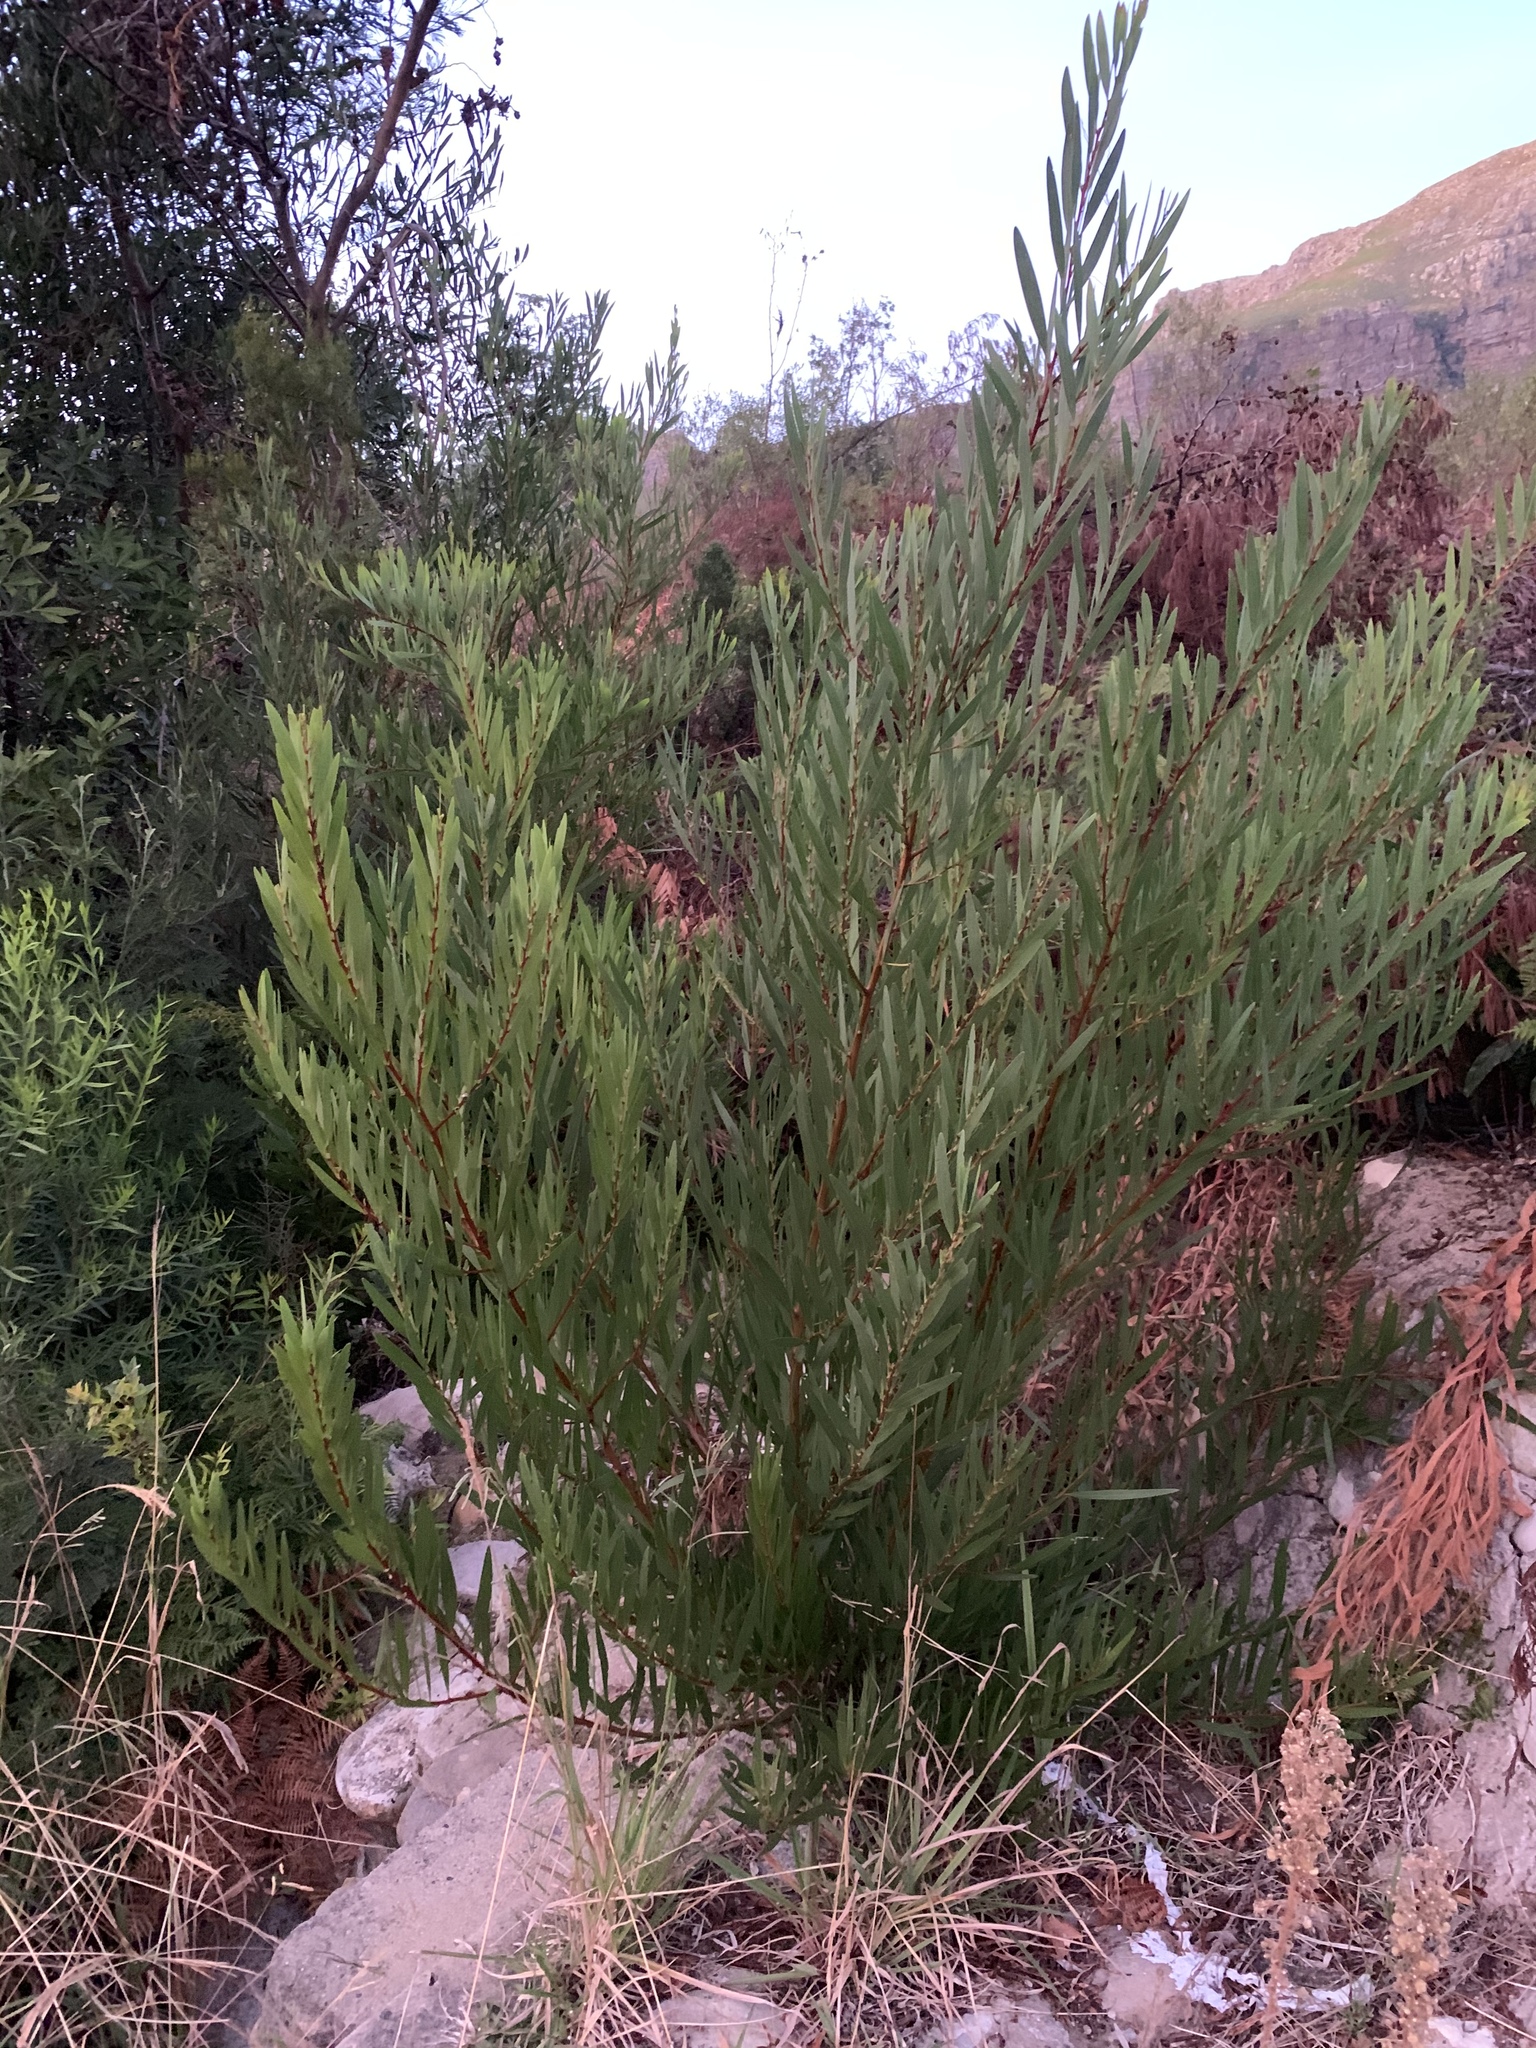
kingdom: Plantae
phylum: Tracheophyta
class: Magnoliopsida
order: Fabales
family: Fabaceae
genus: Acacia
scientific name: Acacia longifolia
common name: Sydney golden wattle
